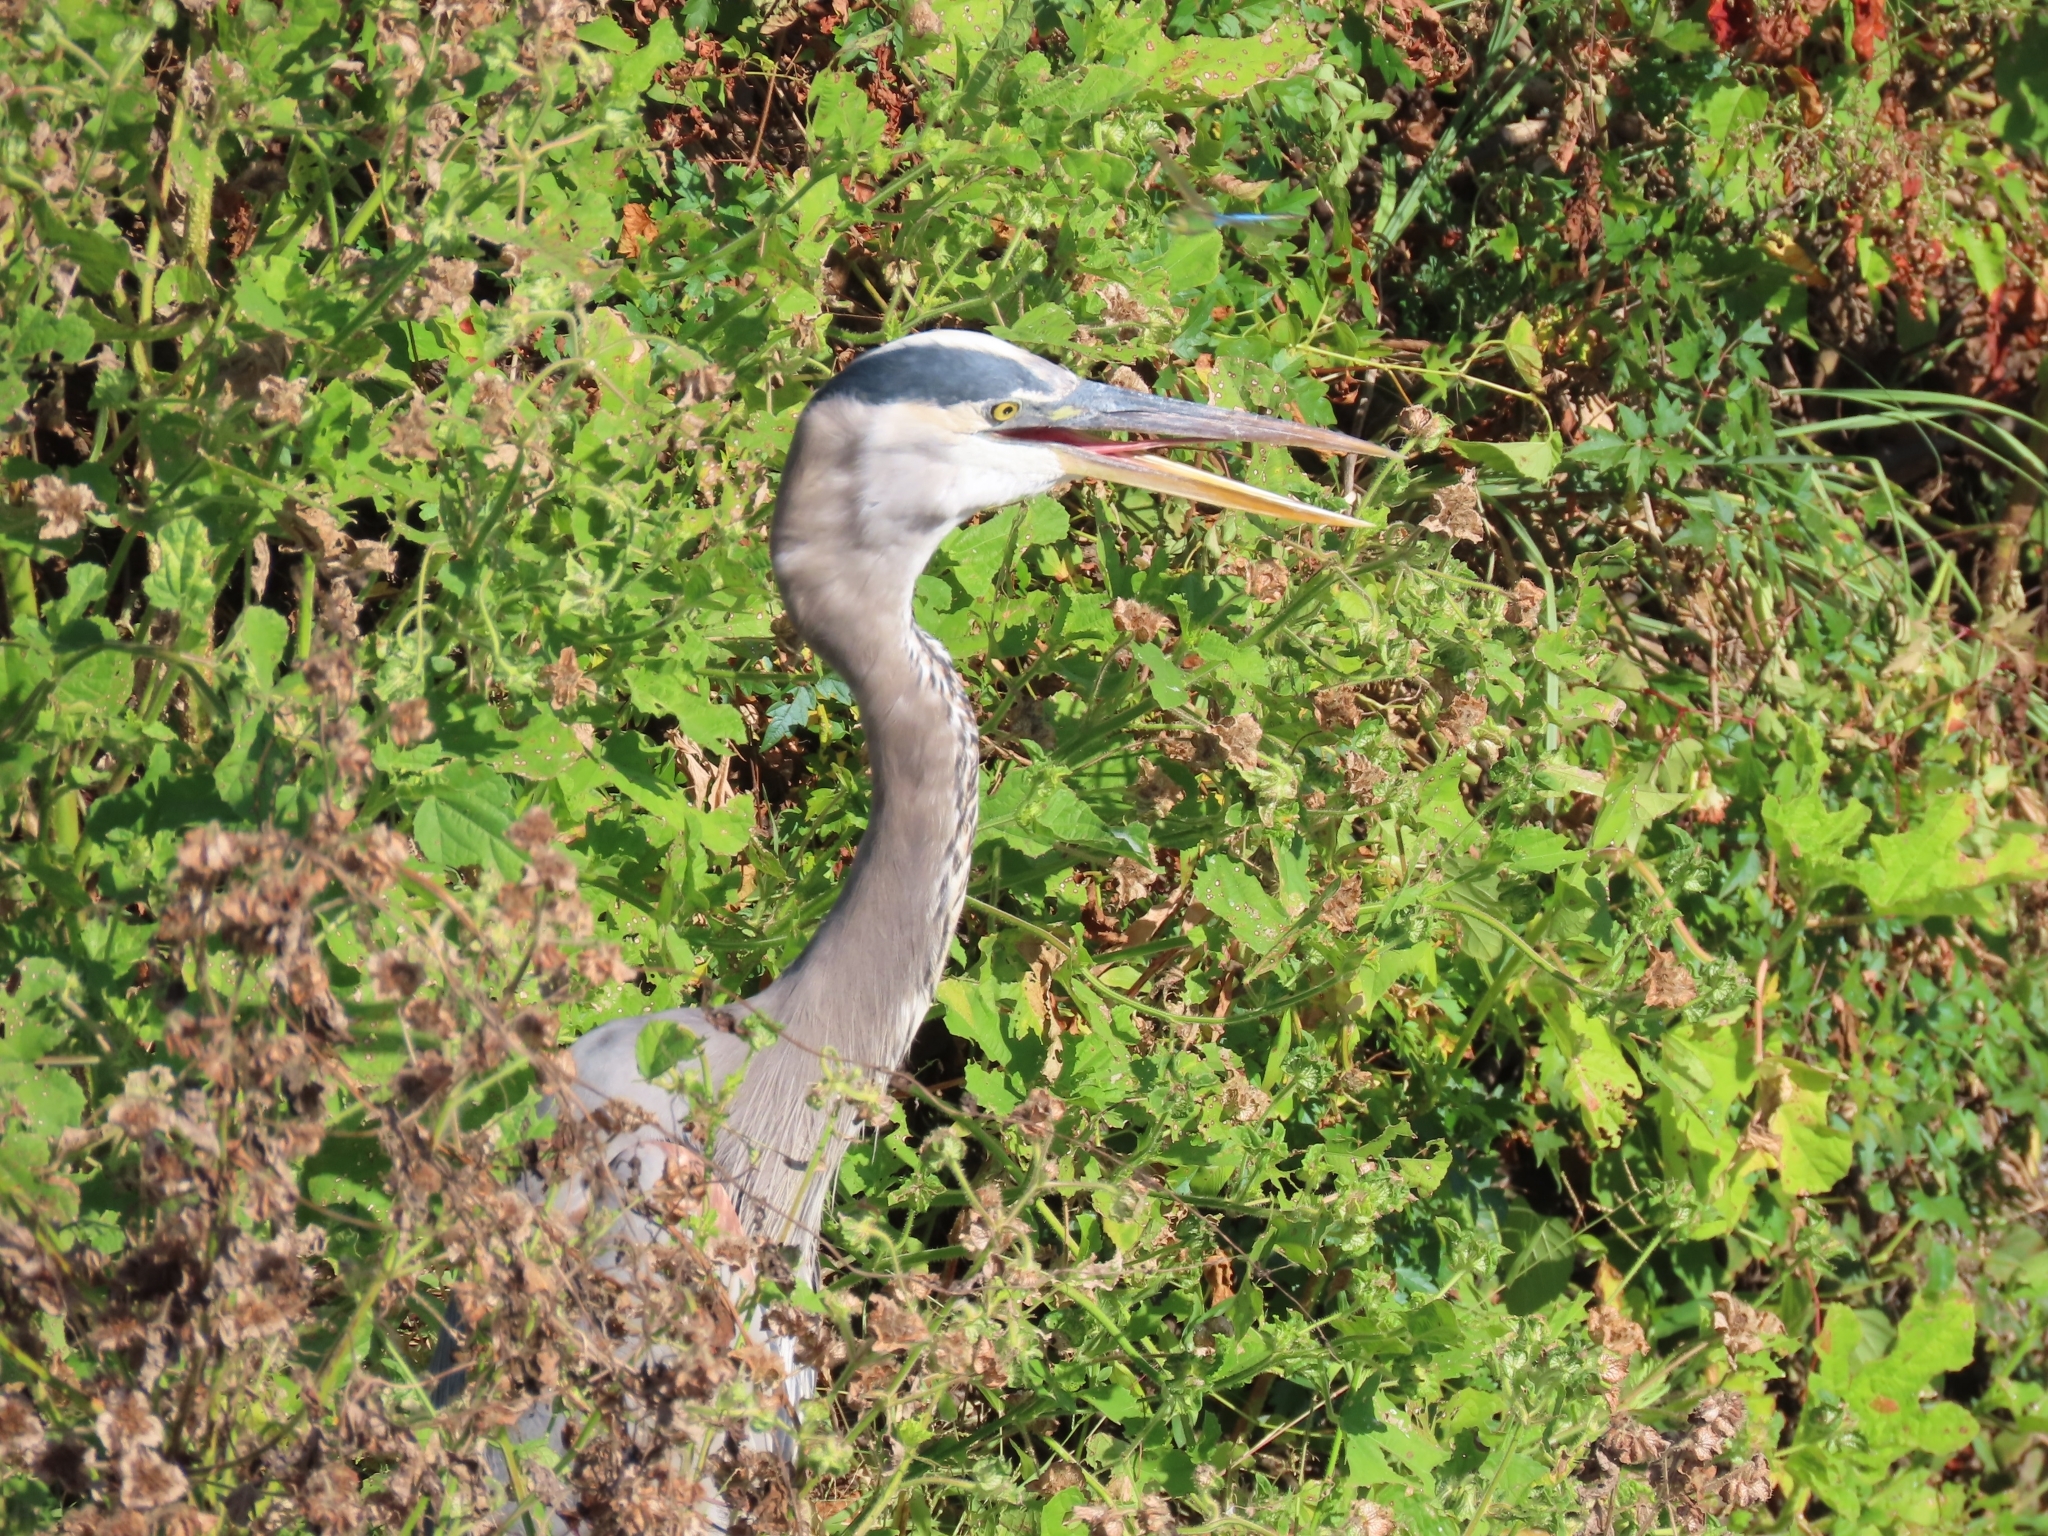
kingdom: Animalia
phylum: Chordata
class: Aves
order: Pelecaniformes
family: Ardeidae
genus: Ardea
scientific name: Ardea herodias
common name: Great blue heron
